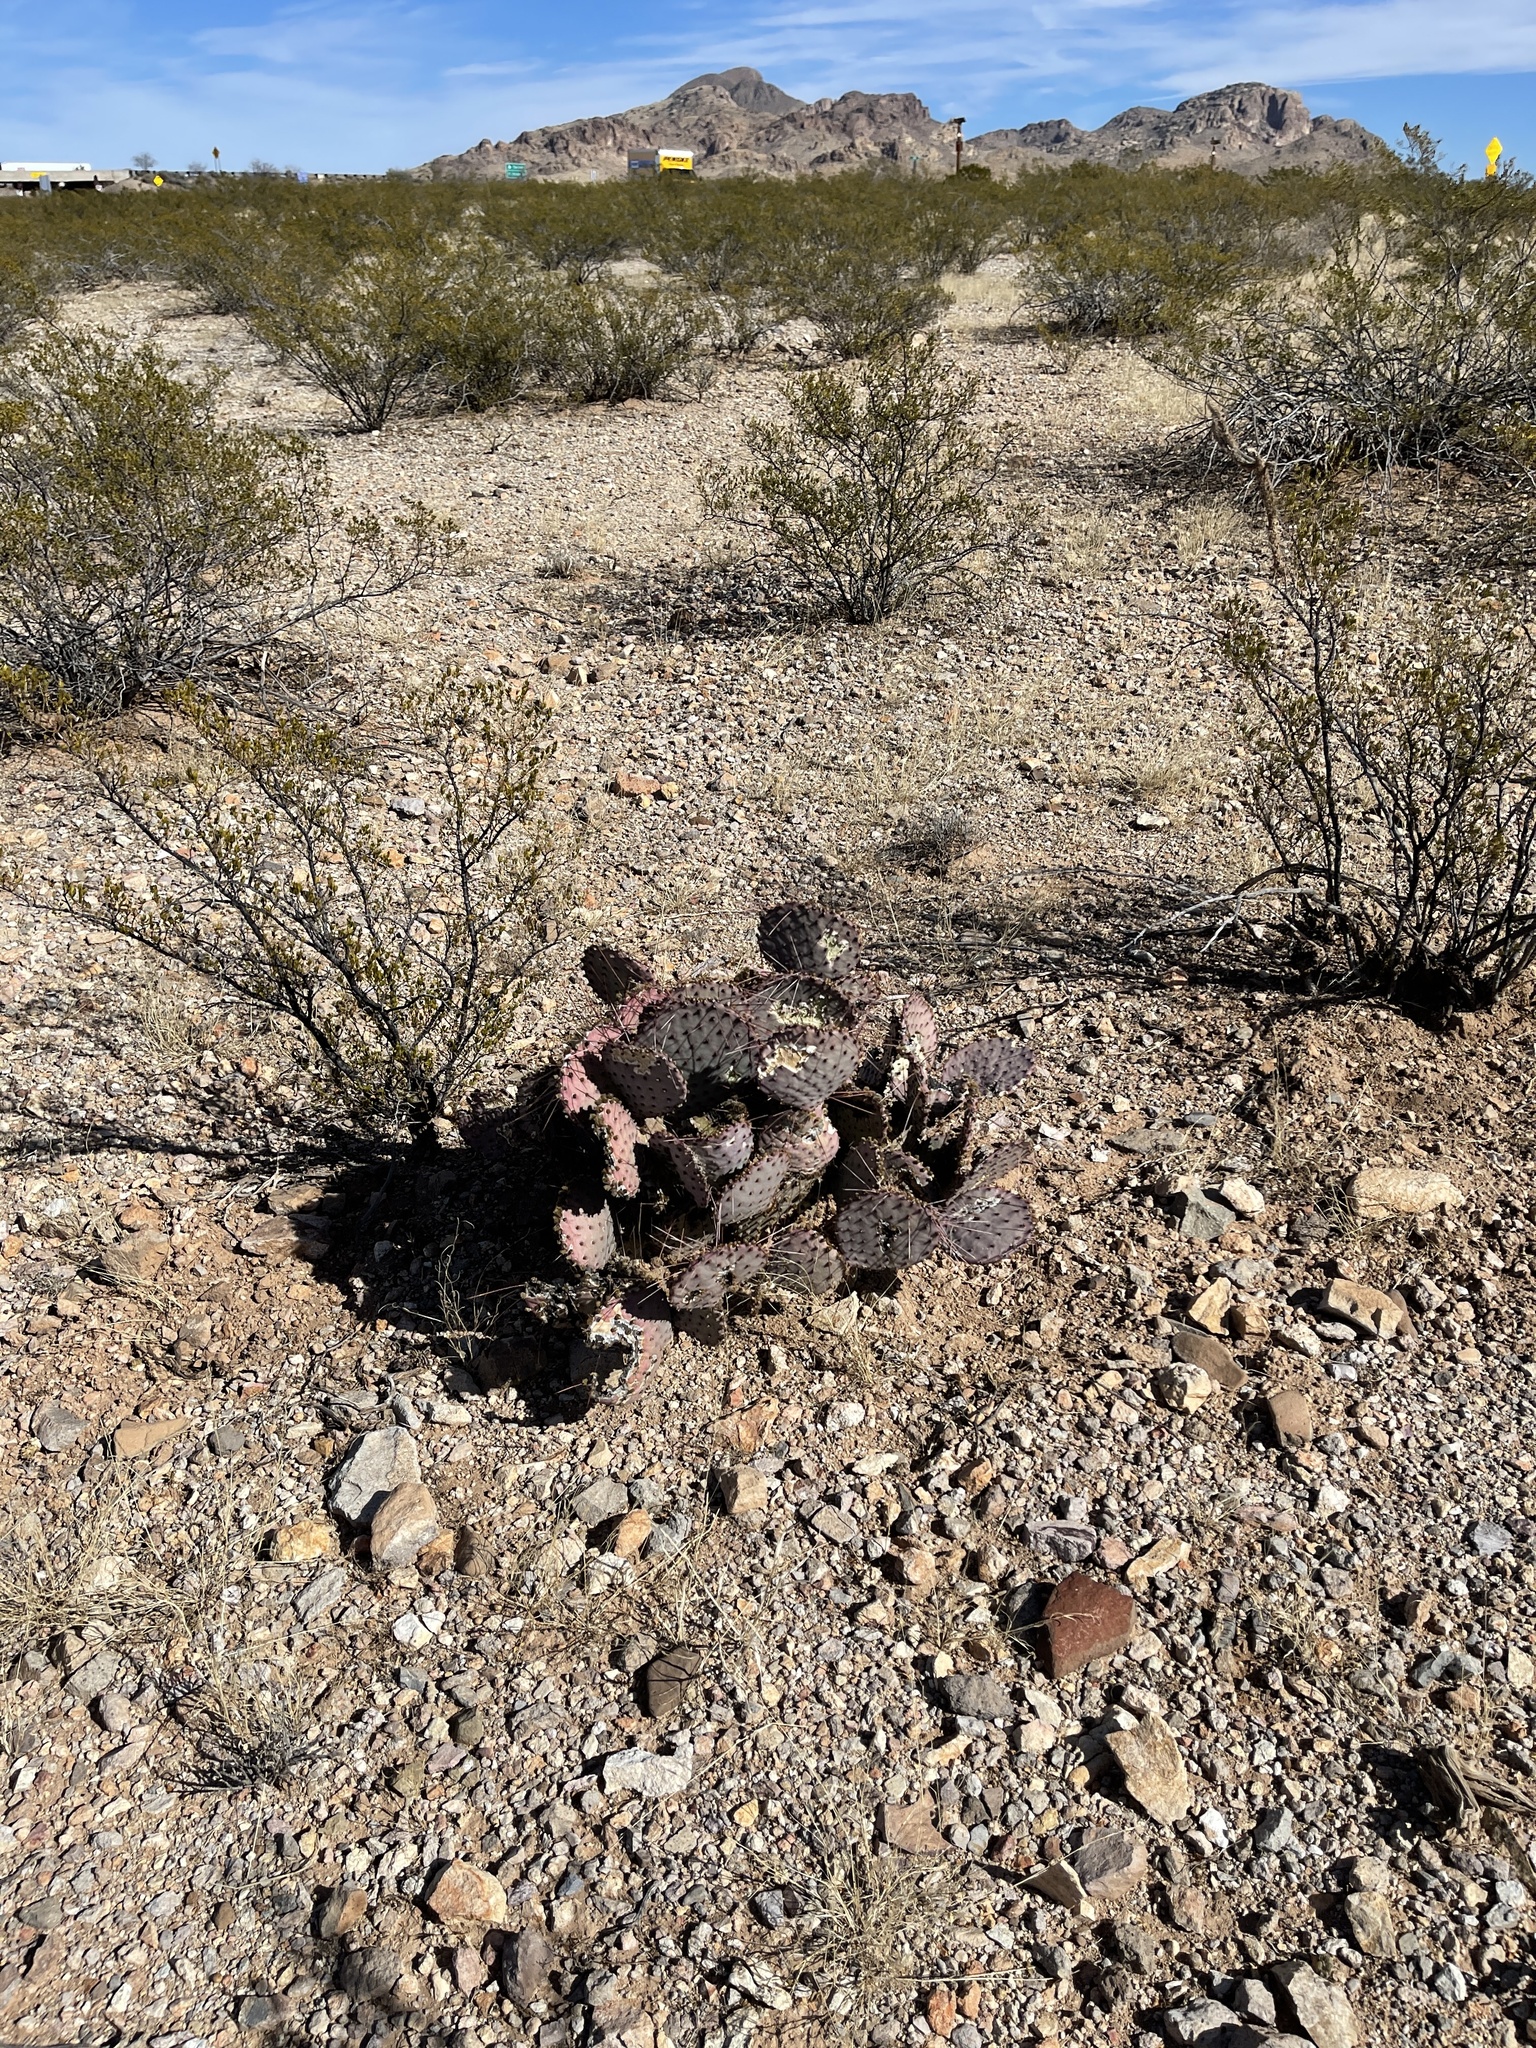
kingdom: Plantae
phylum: Tracheophyta
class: Magnoliopsida
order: Caryophyllales
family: Cactaceae
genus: Opuntia
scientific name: Opuntia macrocentra
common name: Purple prickly-pear
